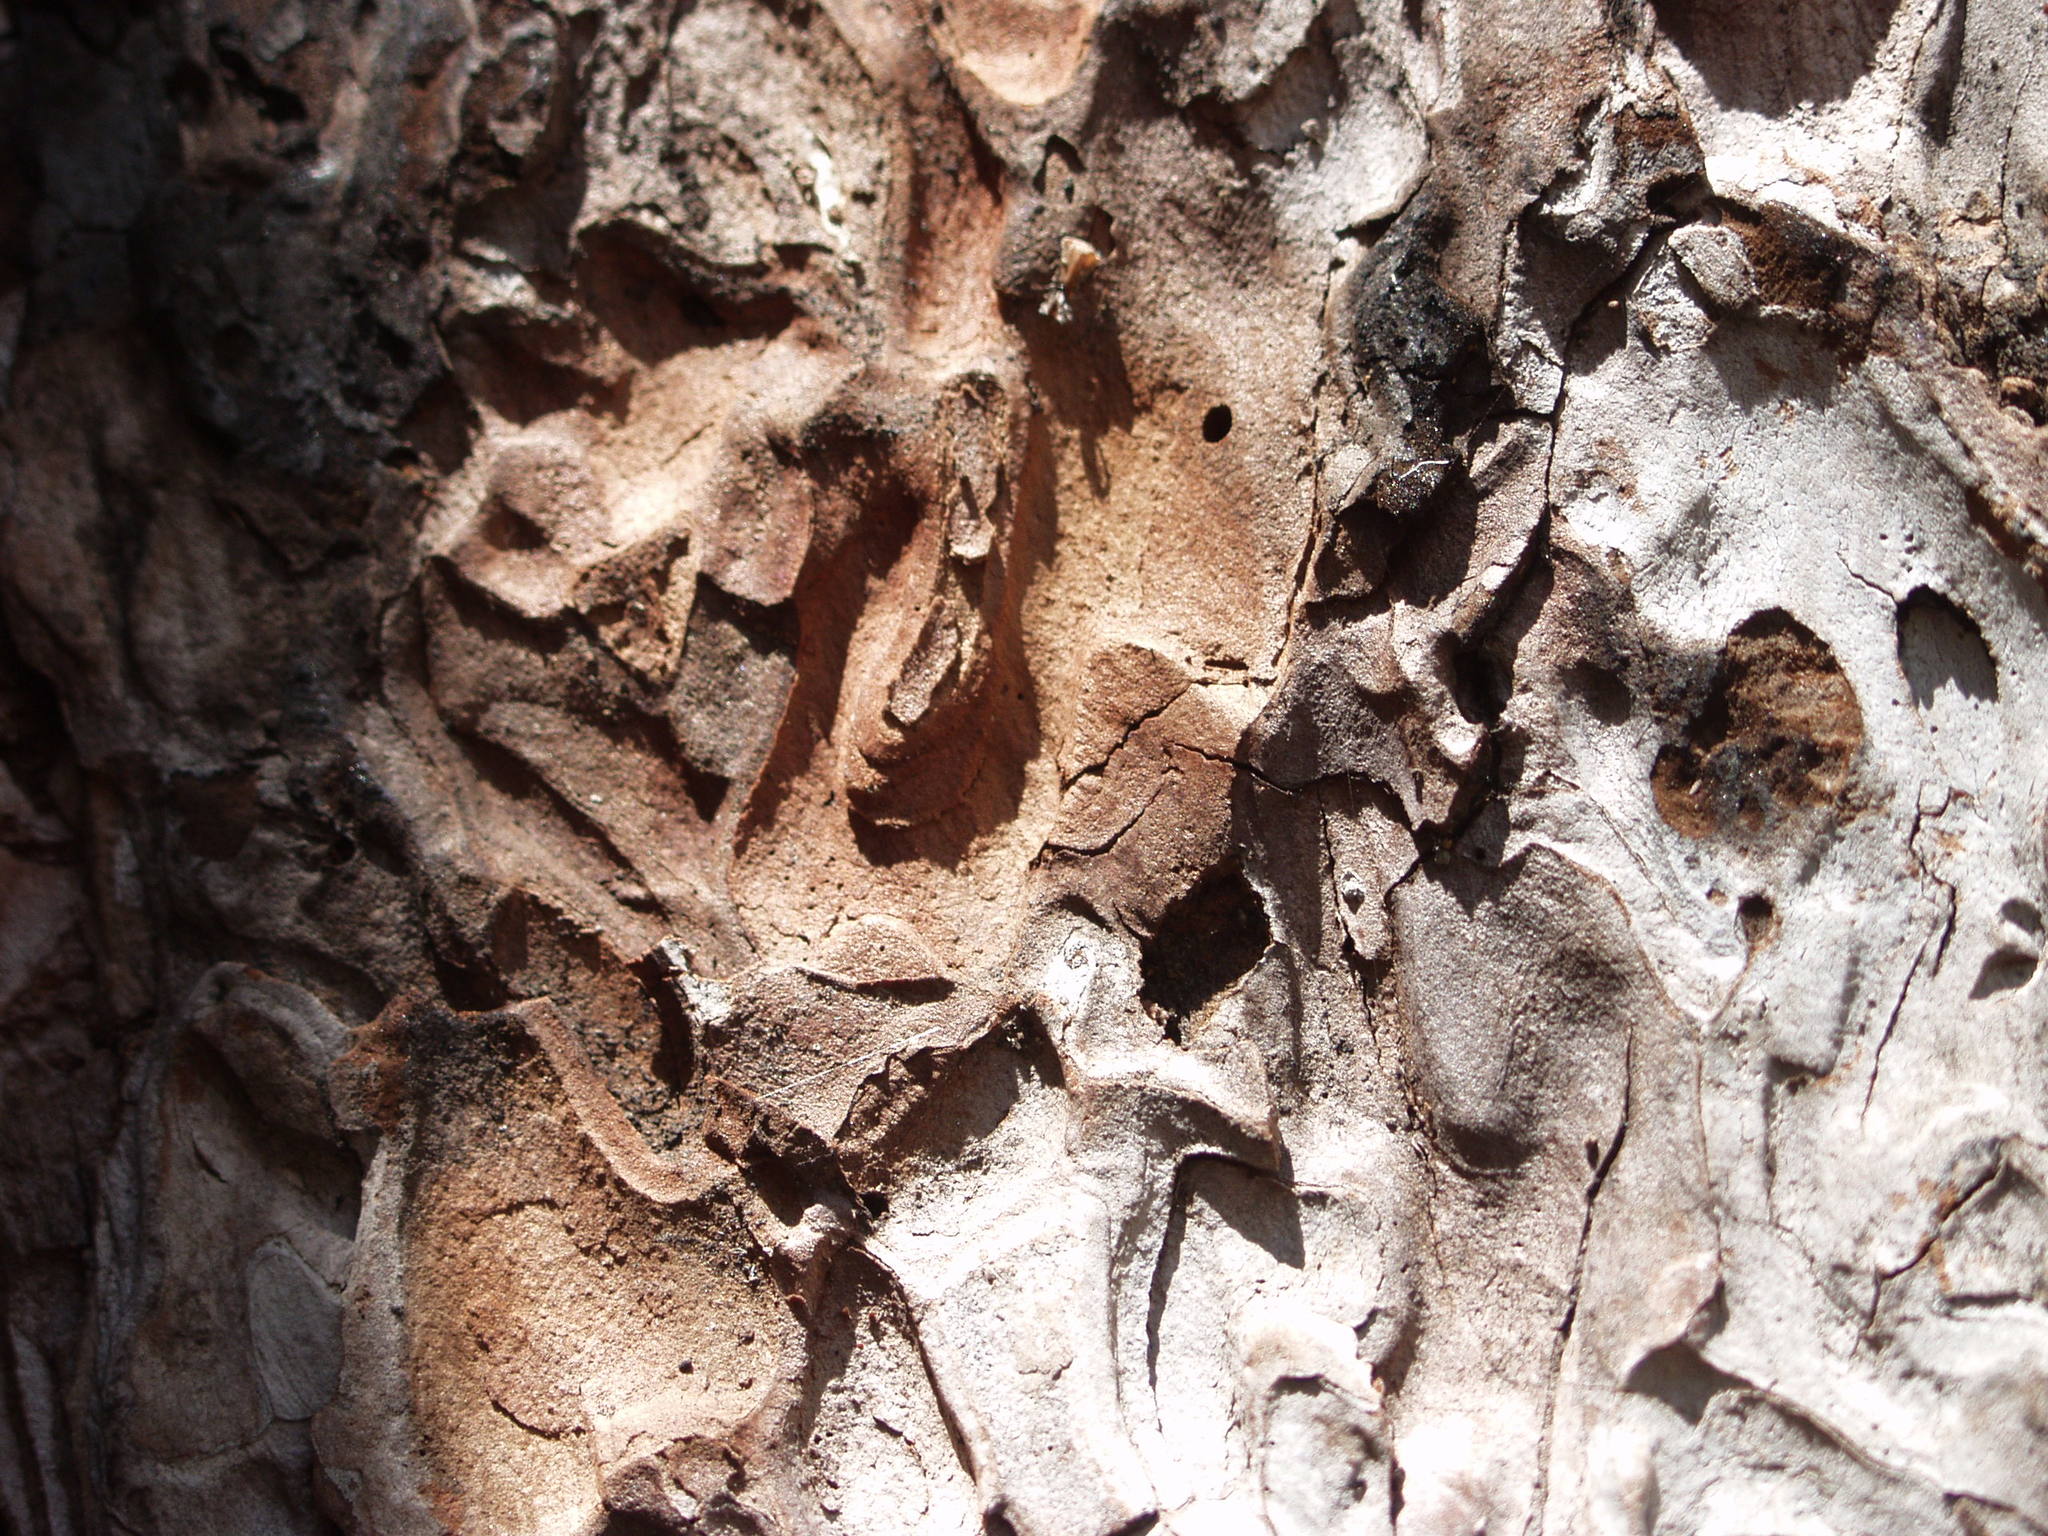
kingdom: Plantae
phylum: Tracheophyta
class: Pinopsida
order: Pinales
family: Pinaceae
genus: Pinus
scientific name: Pinus canariensis
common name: Canary islands pine
